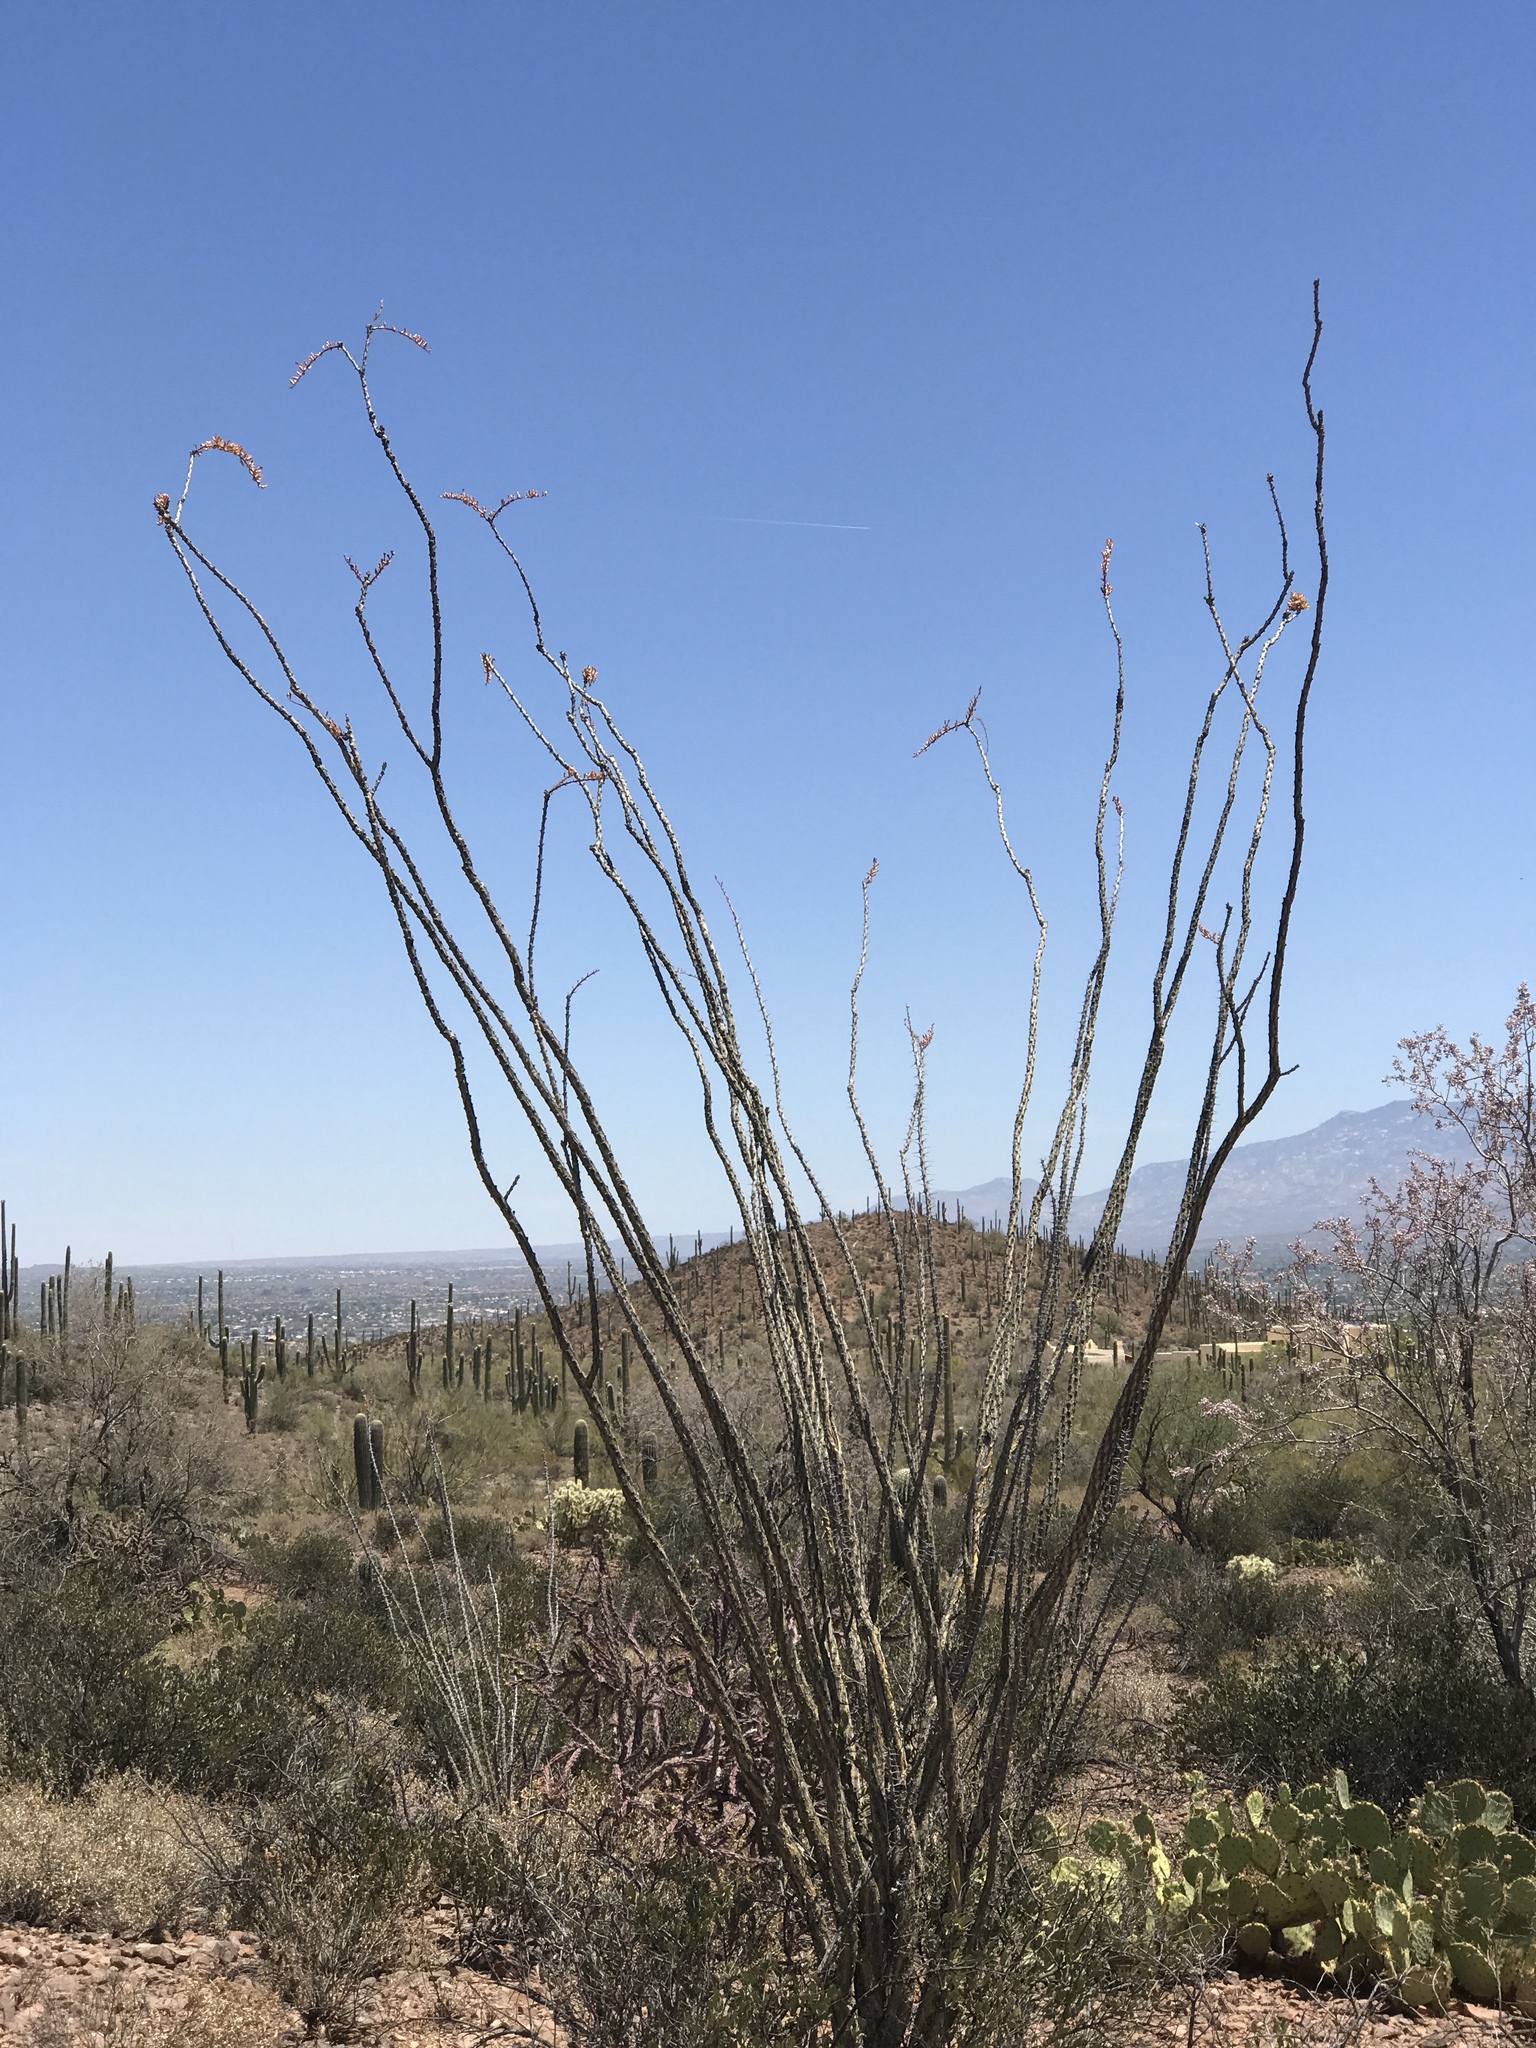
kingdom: Plantae
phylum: Tracheophyta
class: Magnoliopsida
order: Ericales
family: Fouquieriaceae
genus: Fouquieria
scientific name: Fouquieria splendens
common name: Vine-cactus
